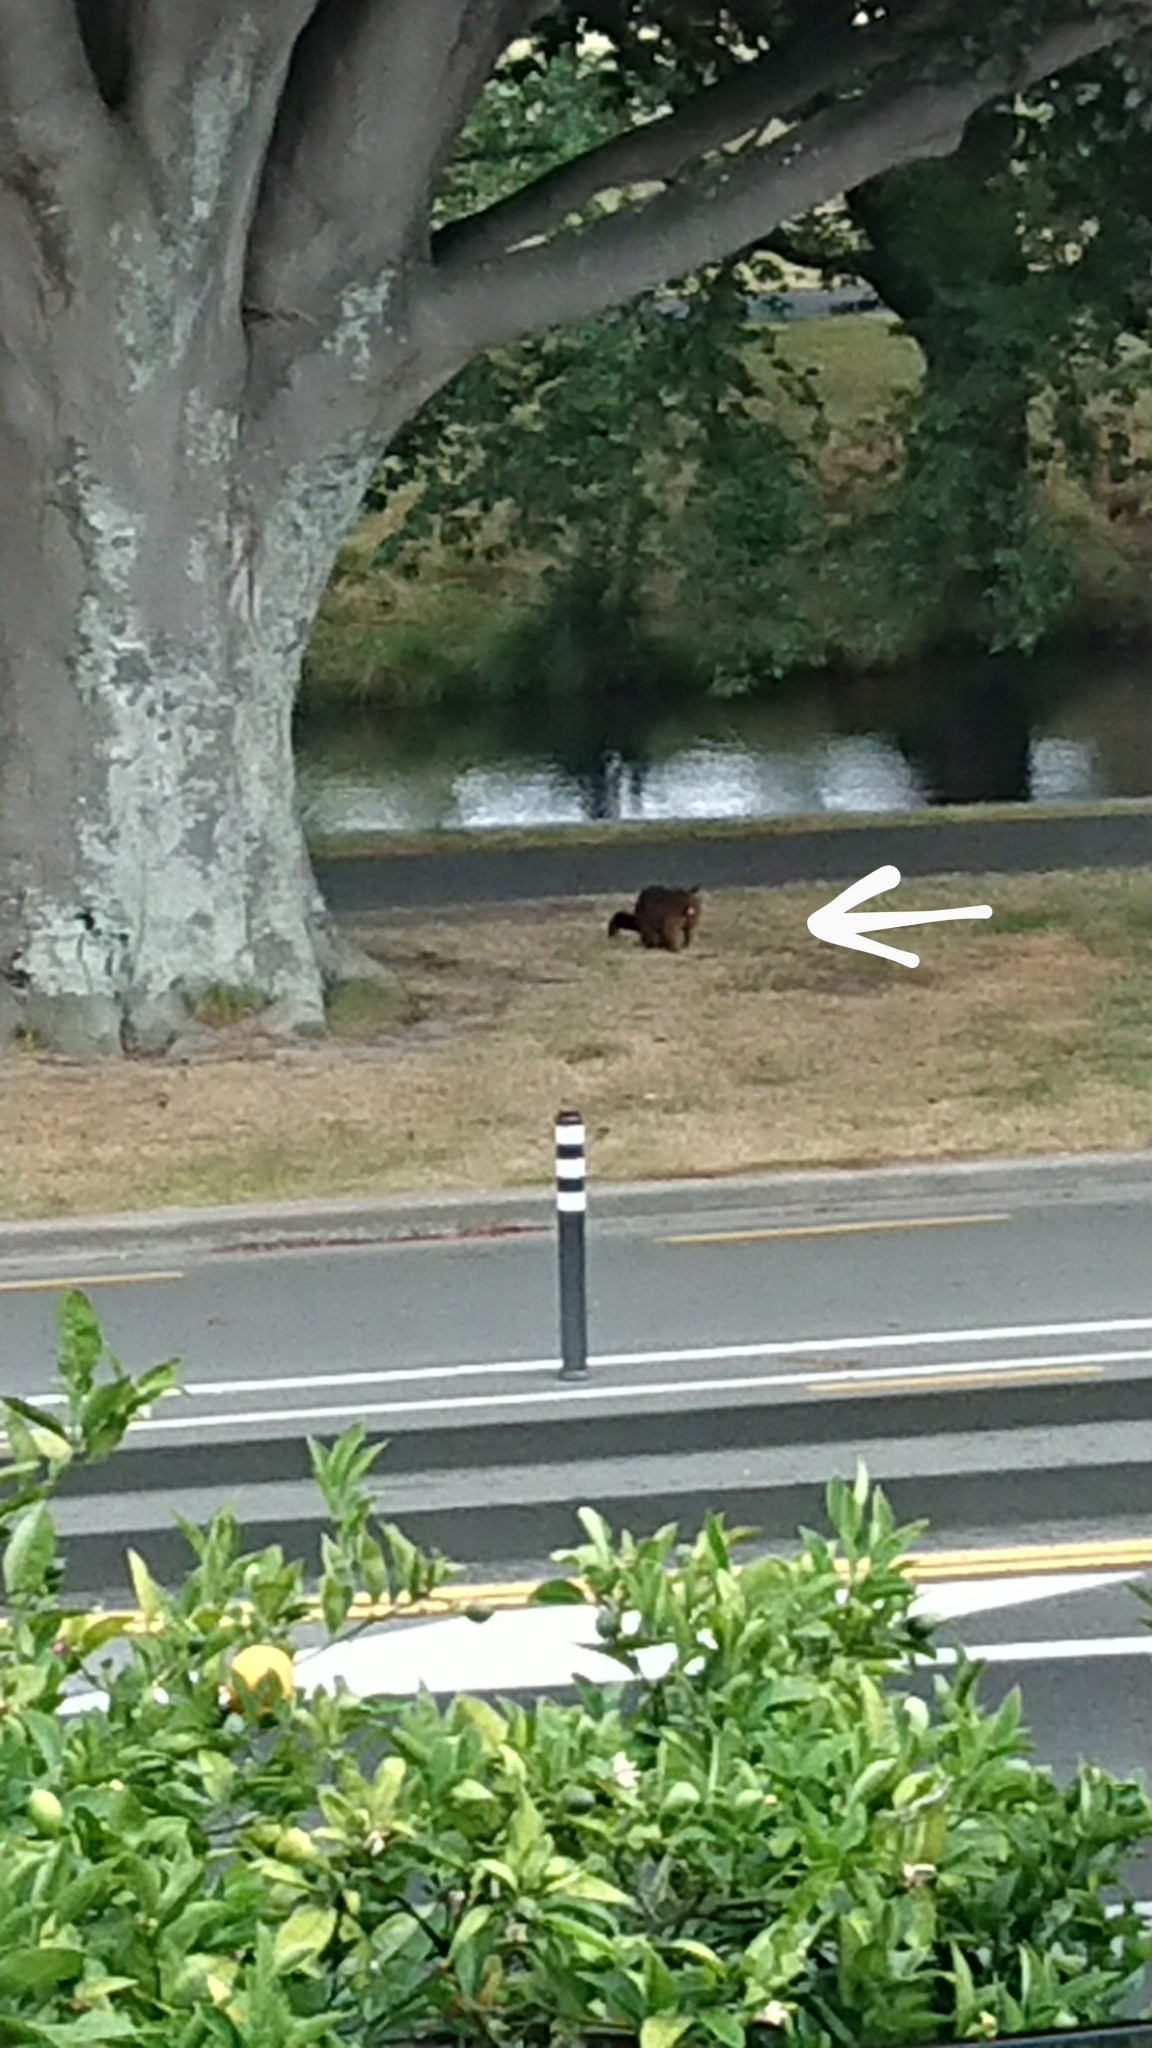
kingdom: Animalia
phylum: Chordata
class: Mammalia
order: Diprotodontia
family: Phalangeridae
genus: Trichosurus
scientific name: Trichosurus vulpecula
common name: Common brushtail
